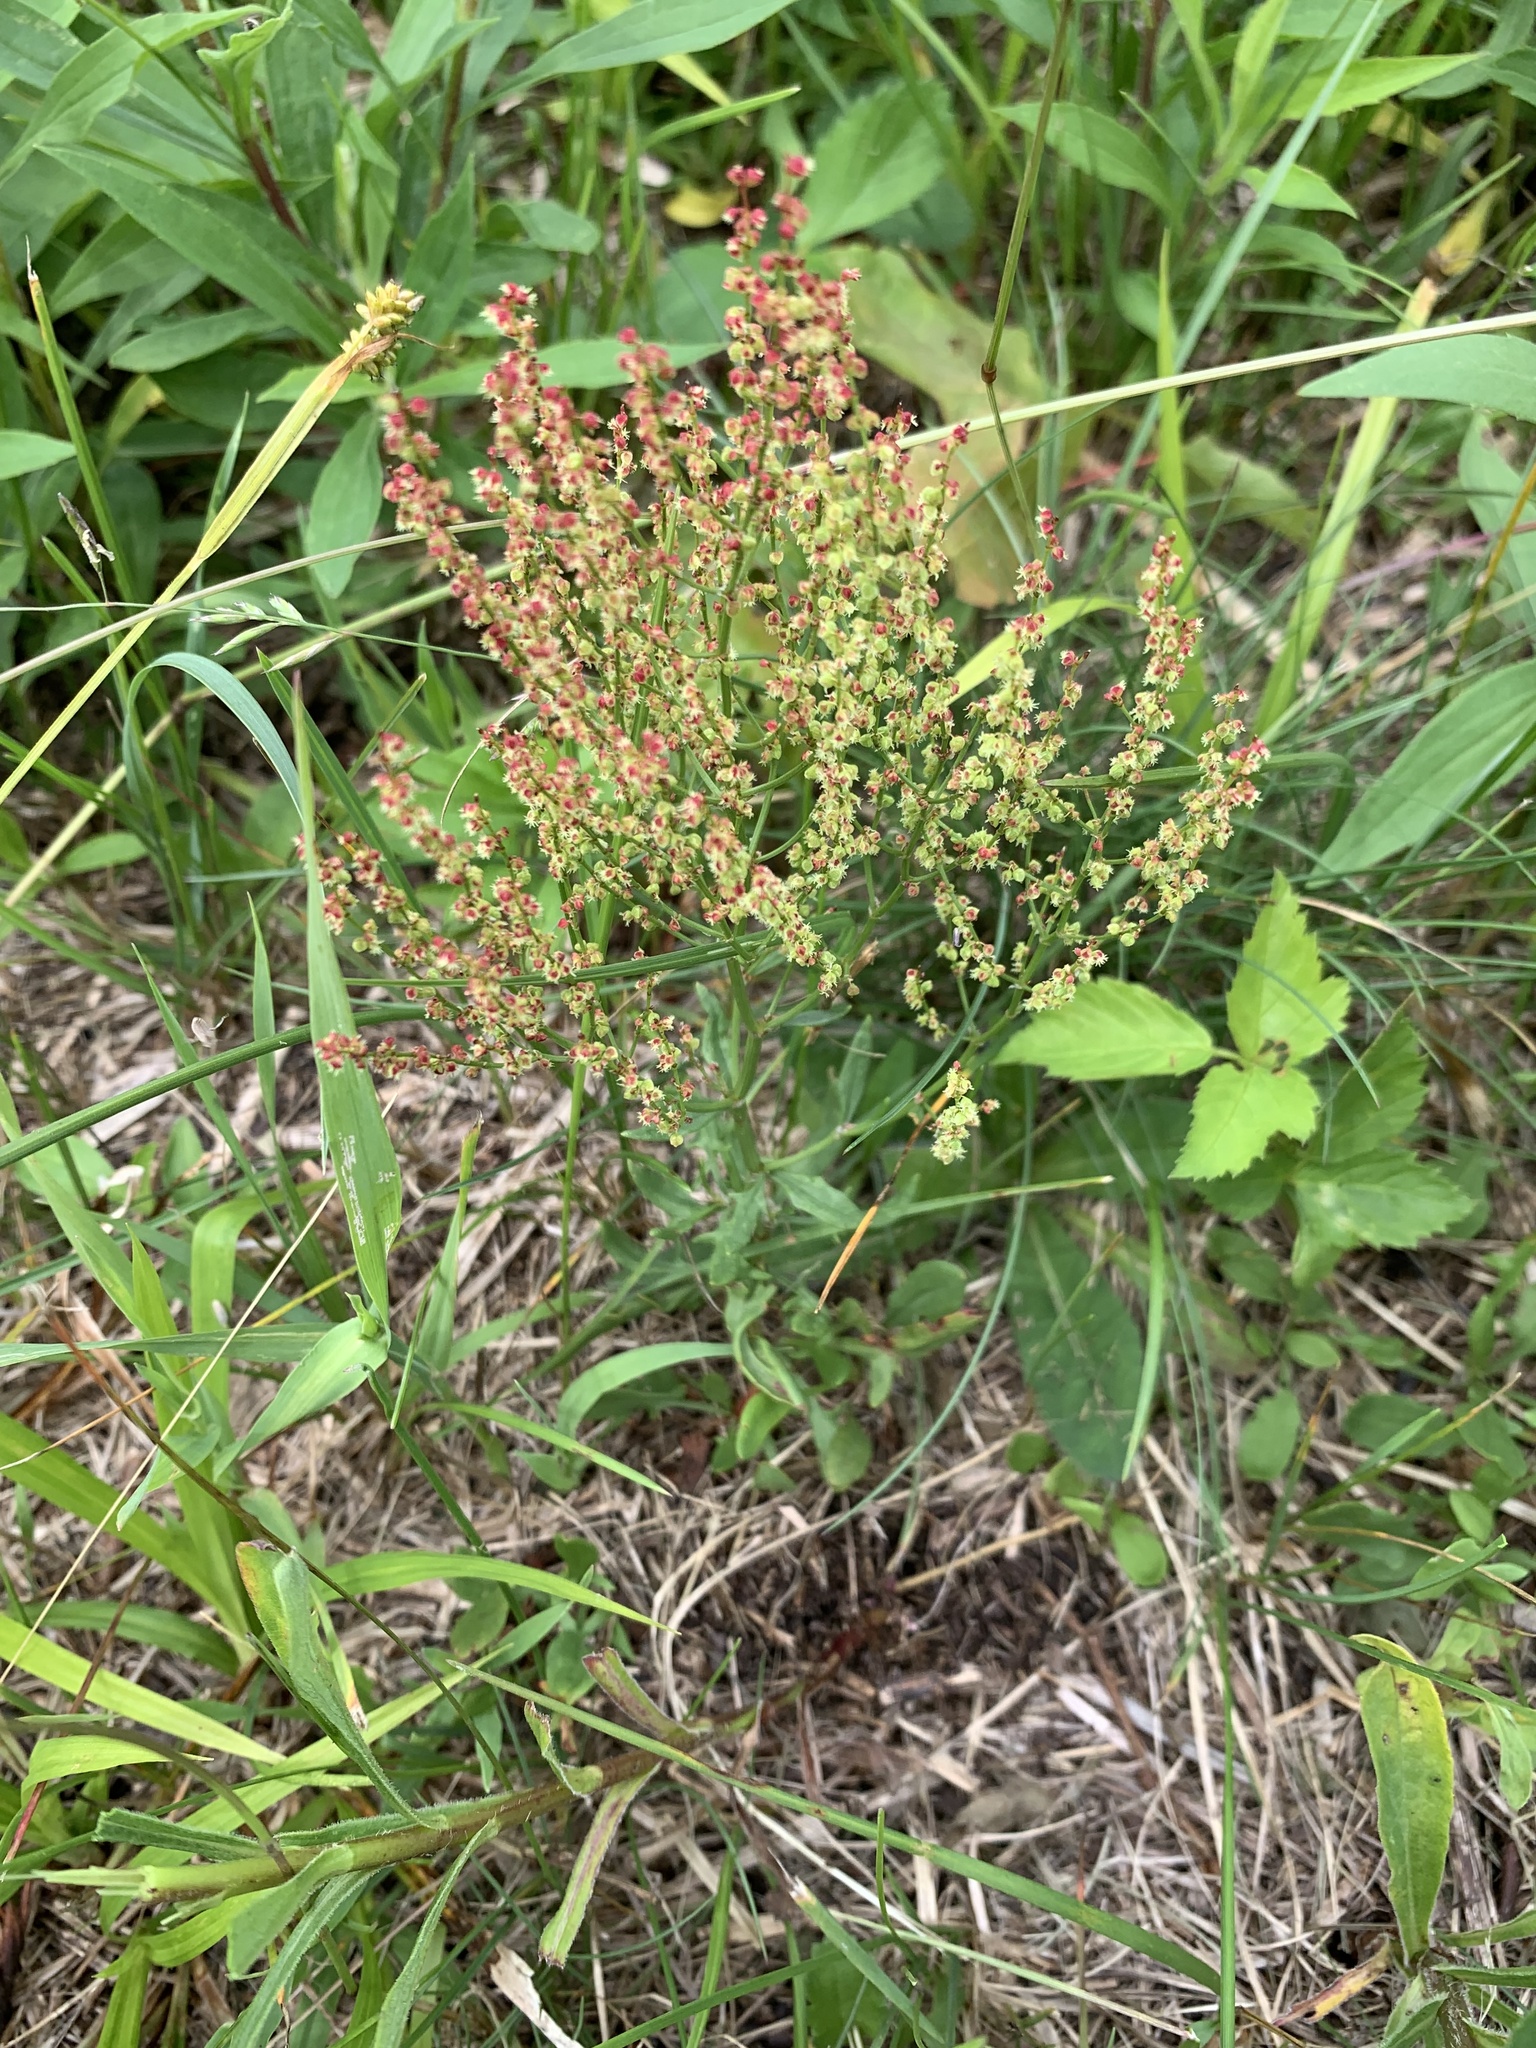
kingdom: Plantae
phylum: Tracheophyta
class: Magnoliopsida
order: Caryophyllales
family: Polygonaceae
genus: Rumex
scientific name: Rumex acetosella
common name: Common sheep sorrel
